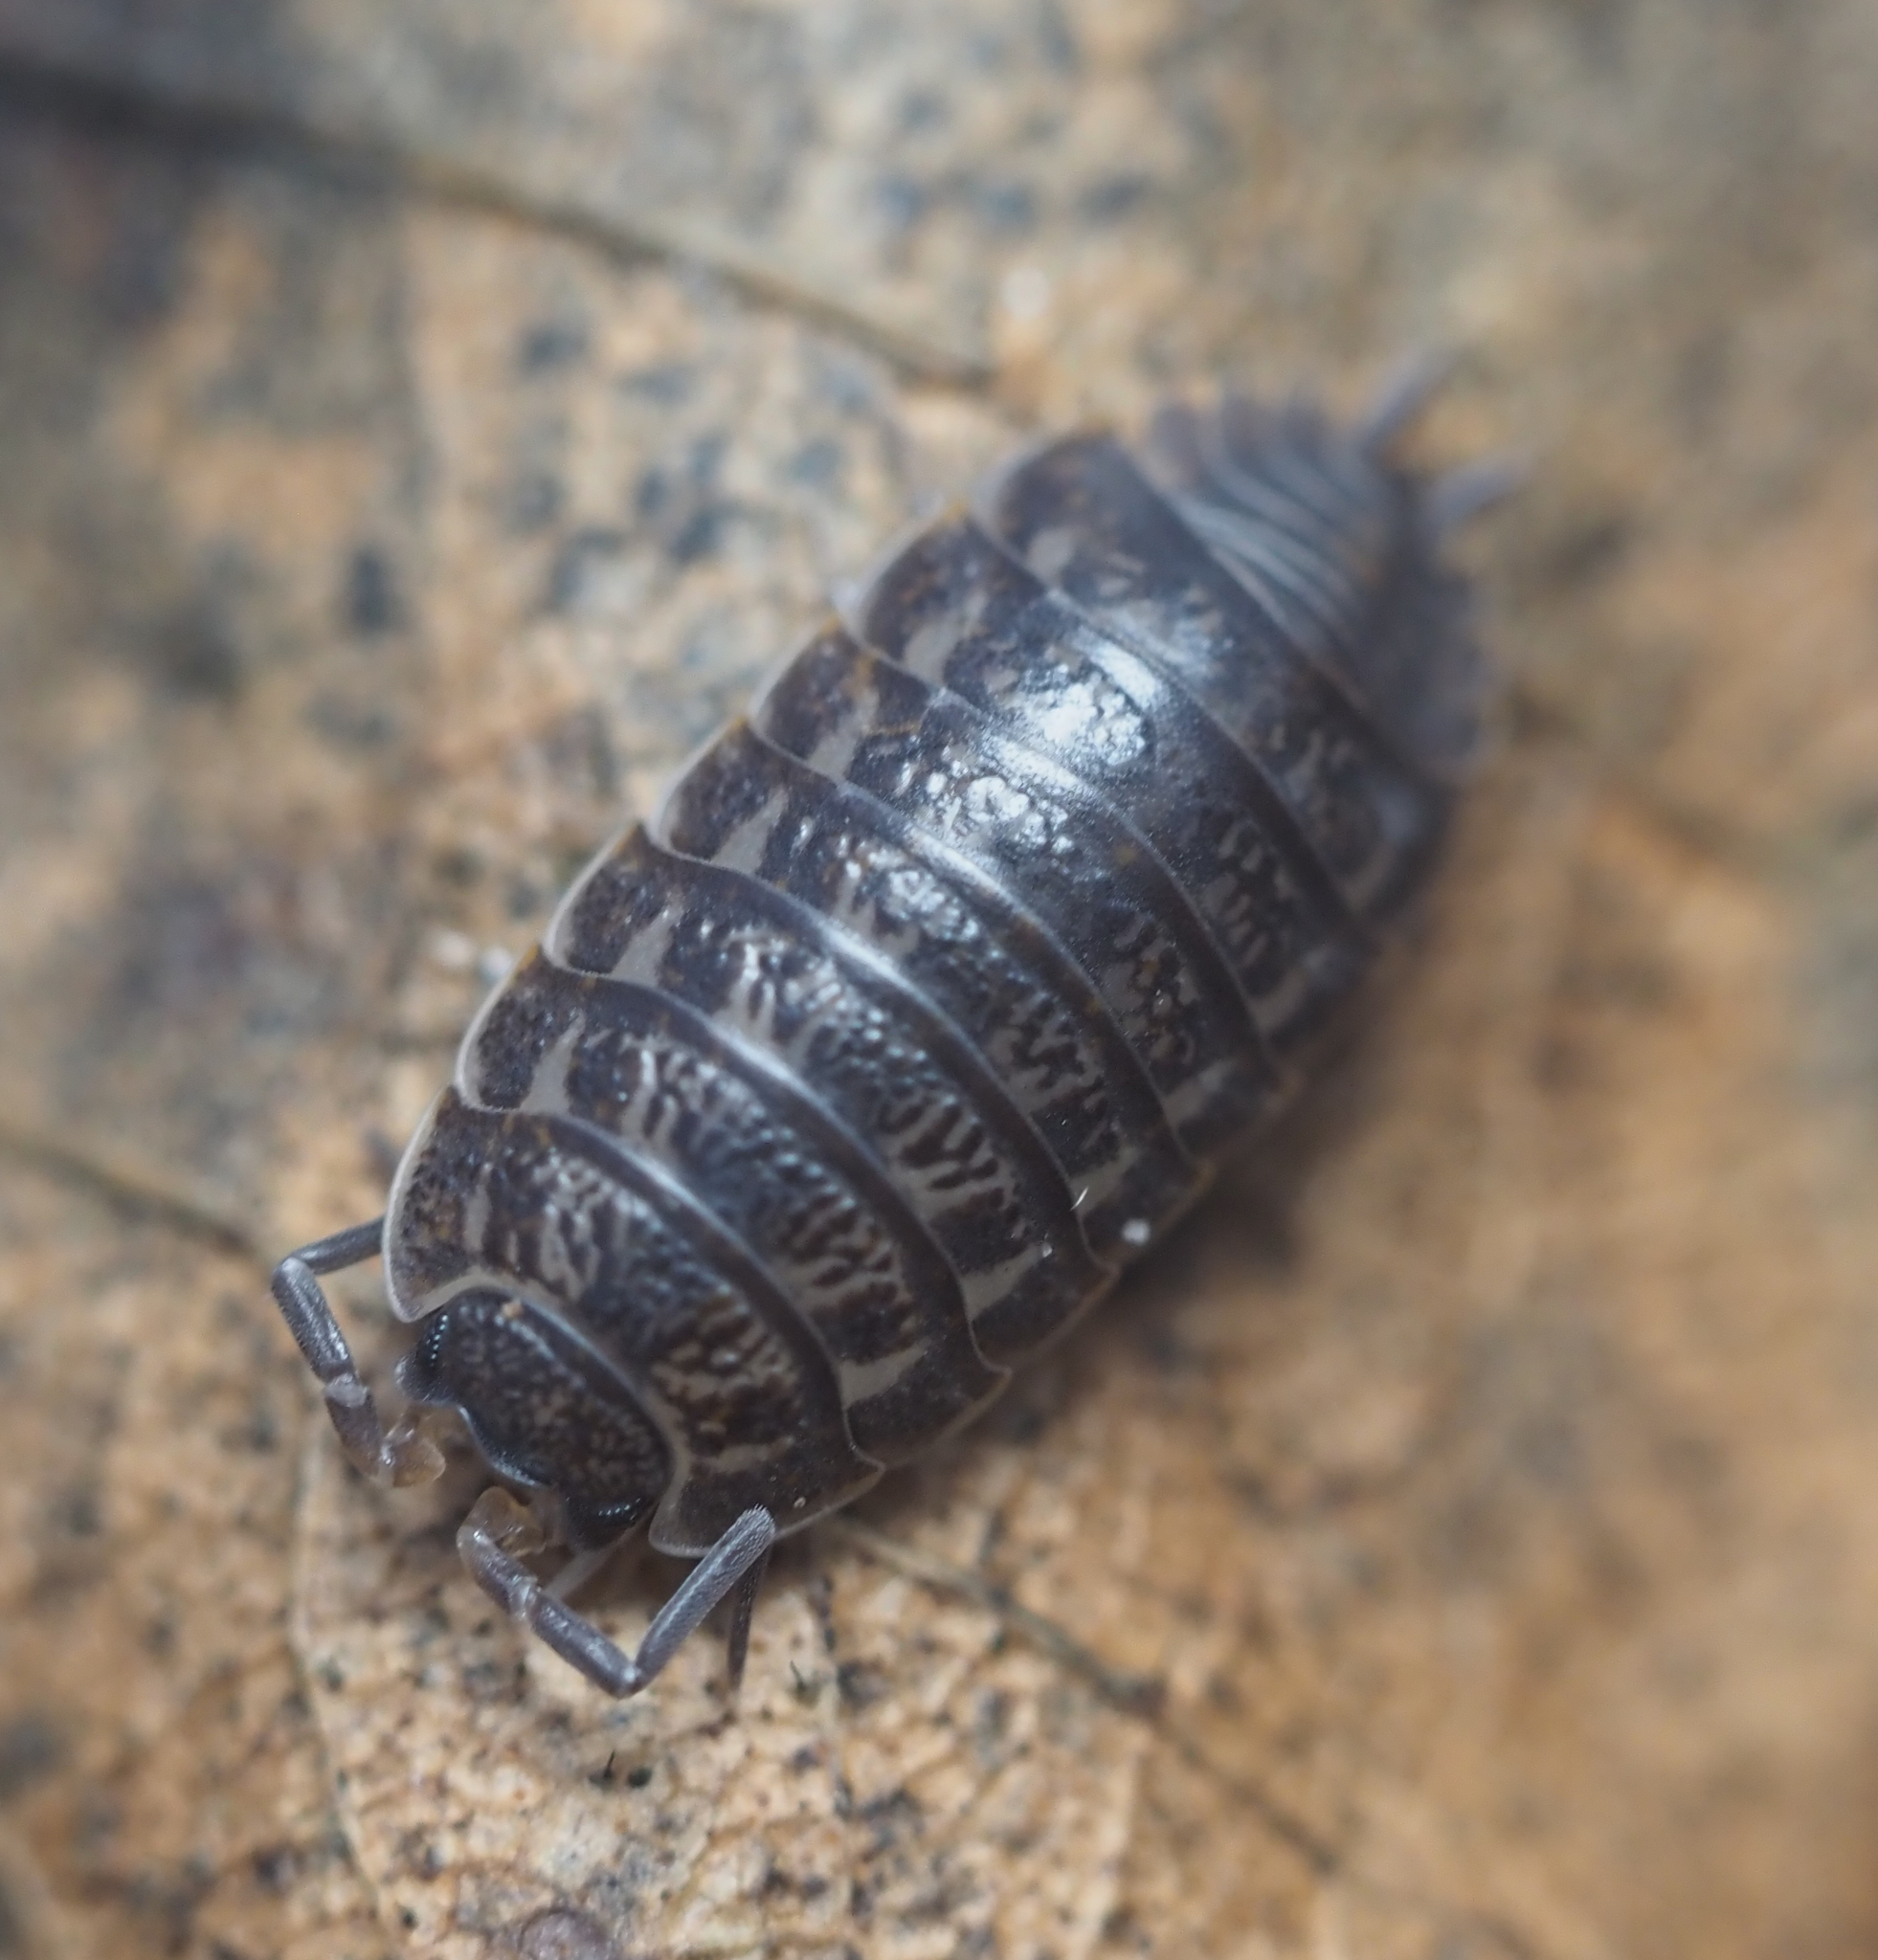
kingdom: Animalia
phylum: Arthropoda
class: Malacostraca
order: Isopoda
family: Trachelipodidae
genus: Trachelipus
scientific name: Trachelipus rathkii
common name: Isopod
